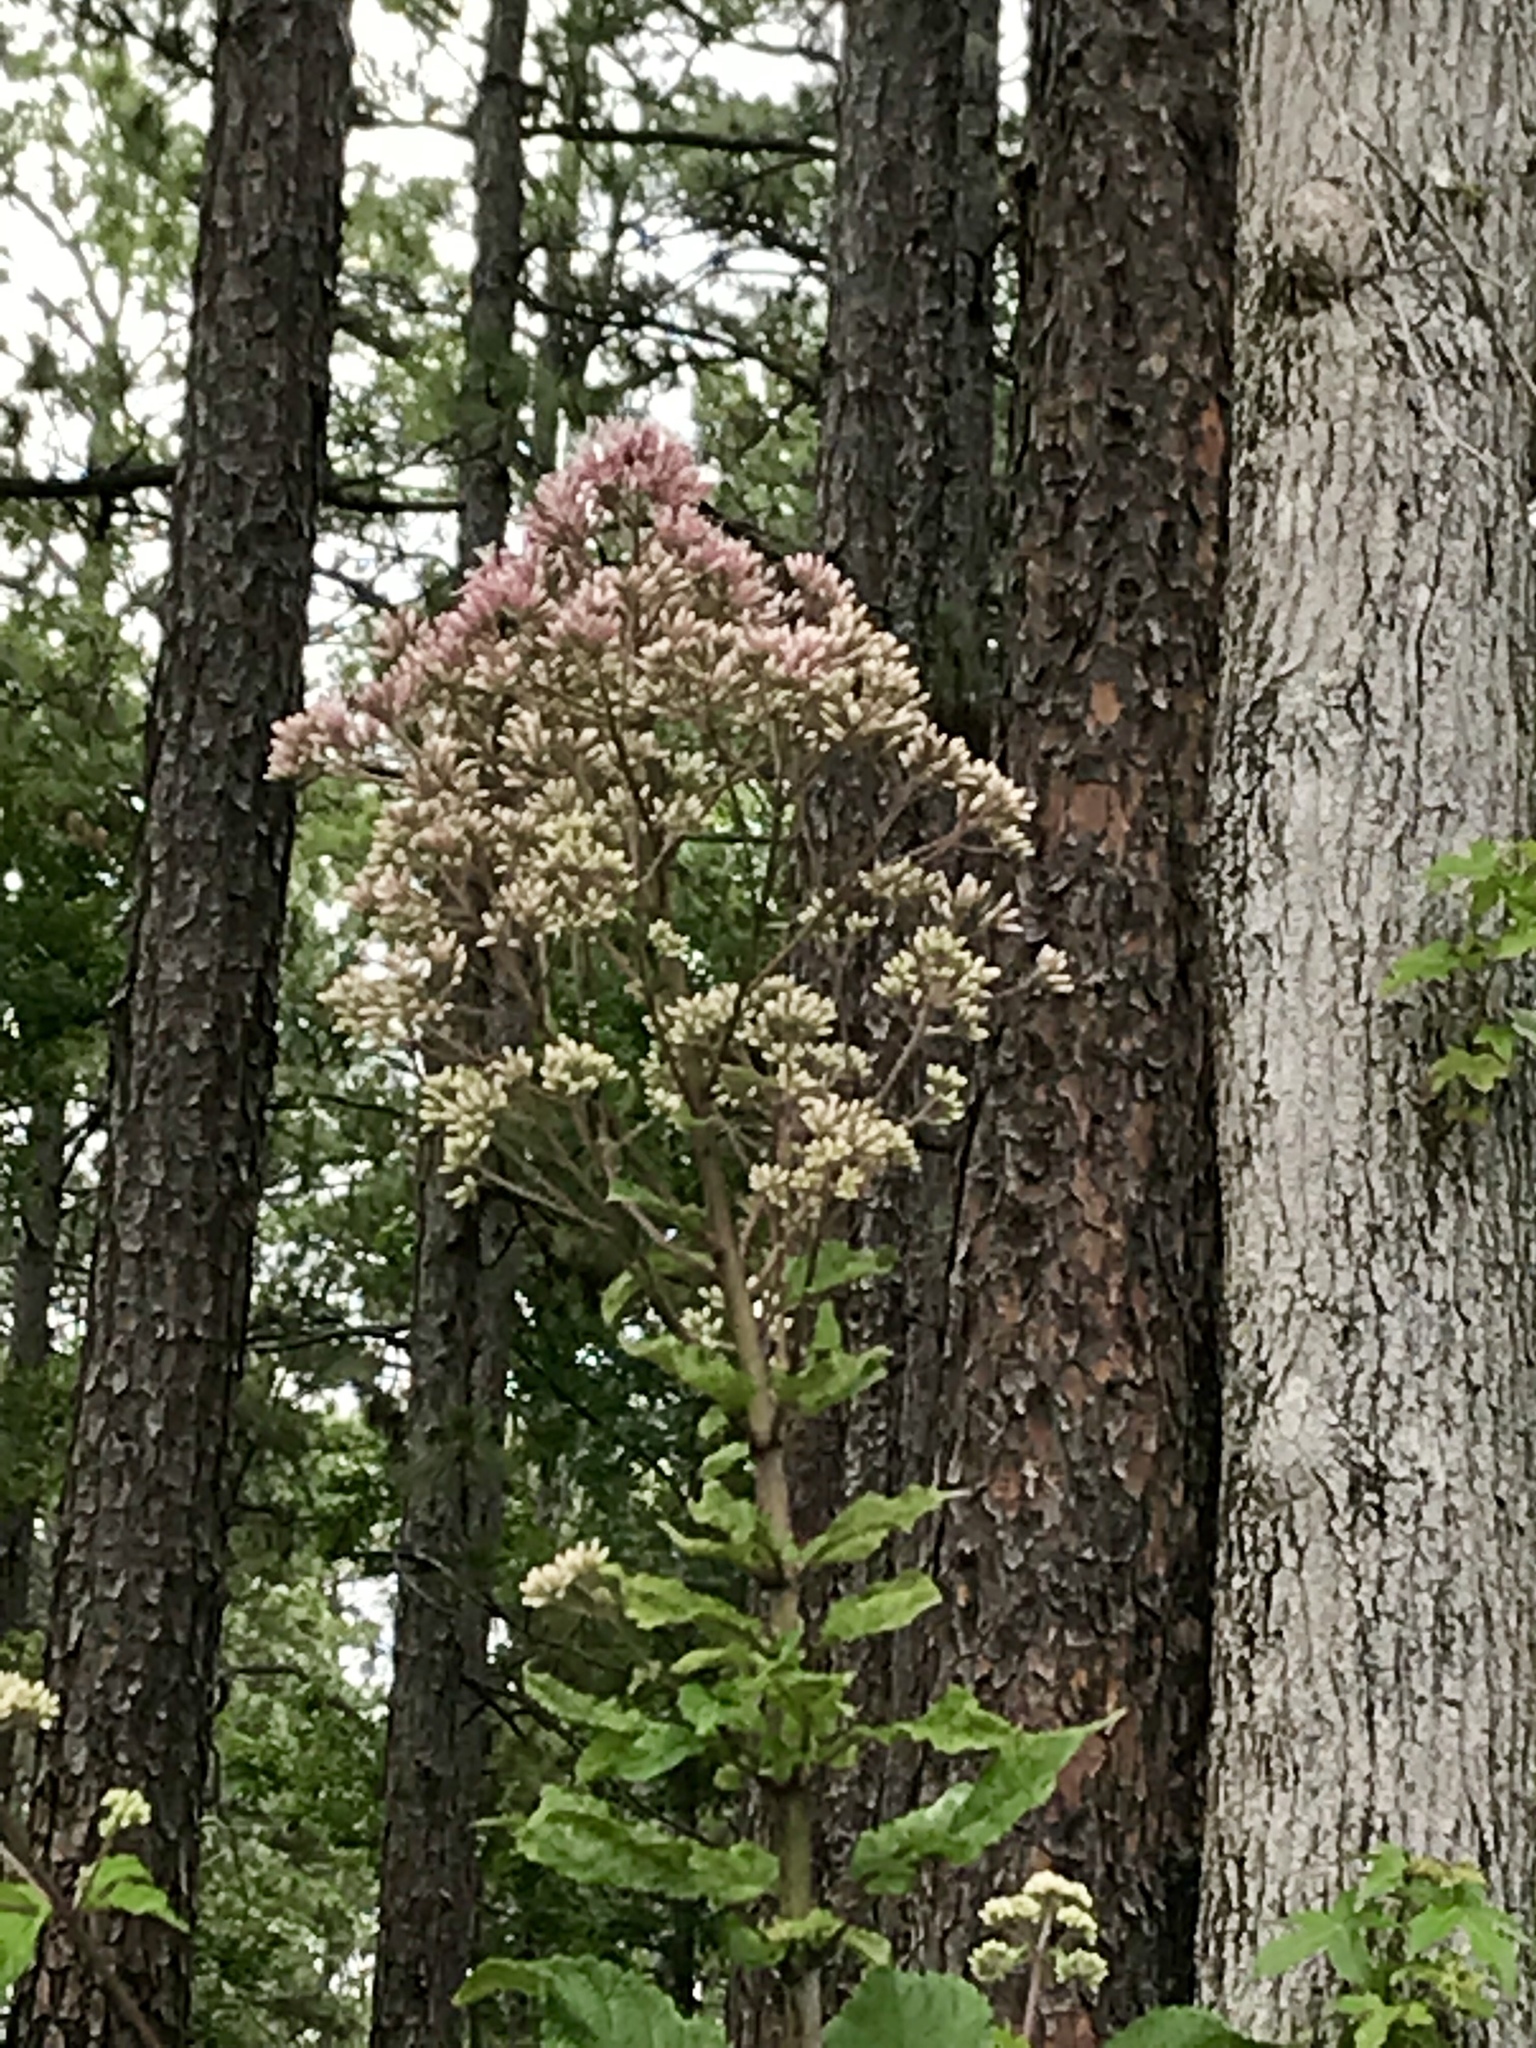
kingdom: Plantae
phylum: Tracheophyta
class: Magnoliopsida
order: Asterales
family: Asteraceae
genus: Eutrochium
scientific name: Eutrochium fistulosum
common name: Trumpetweed
